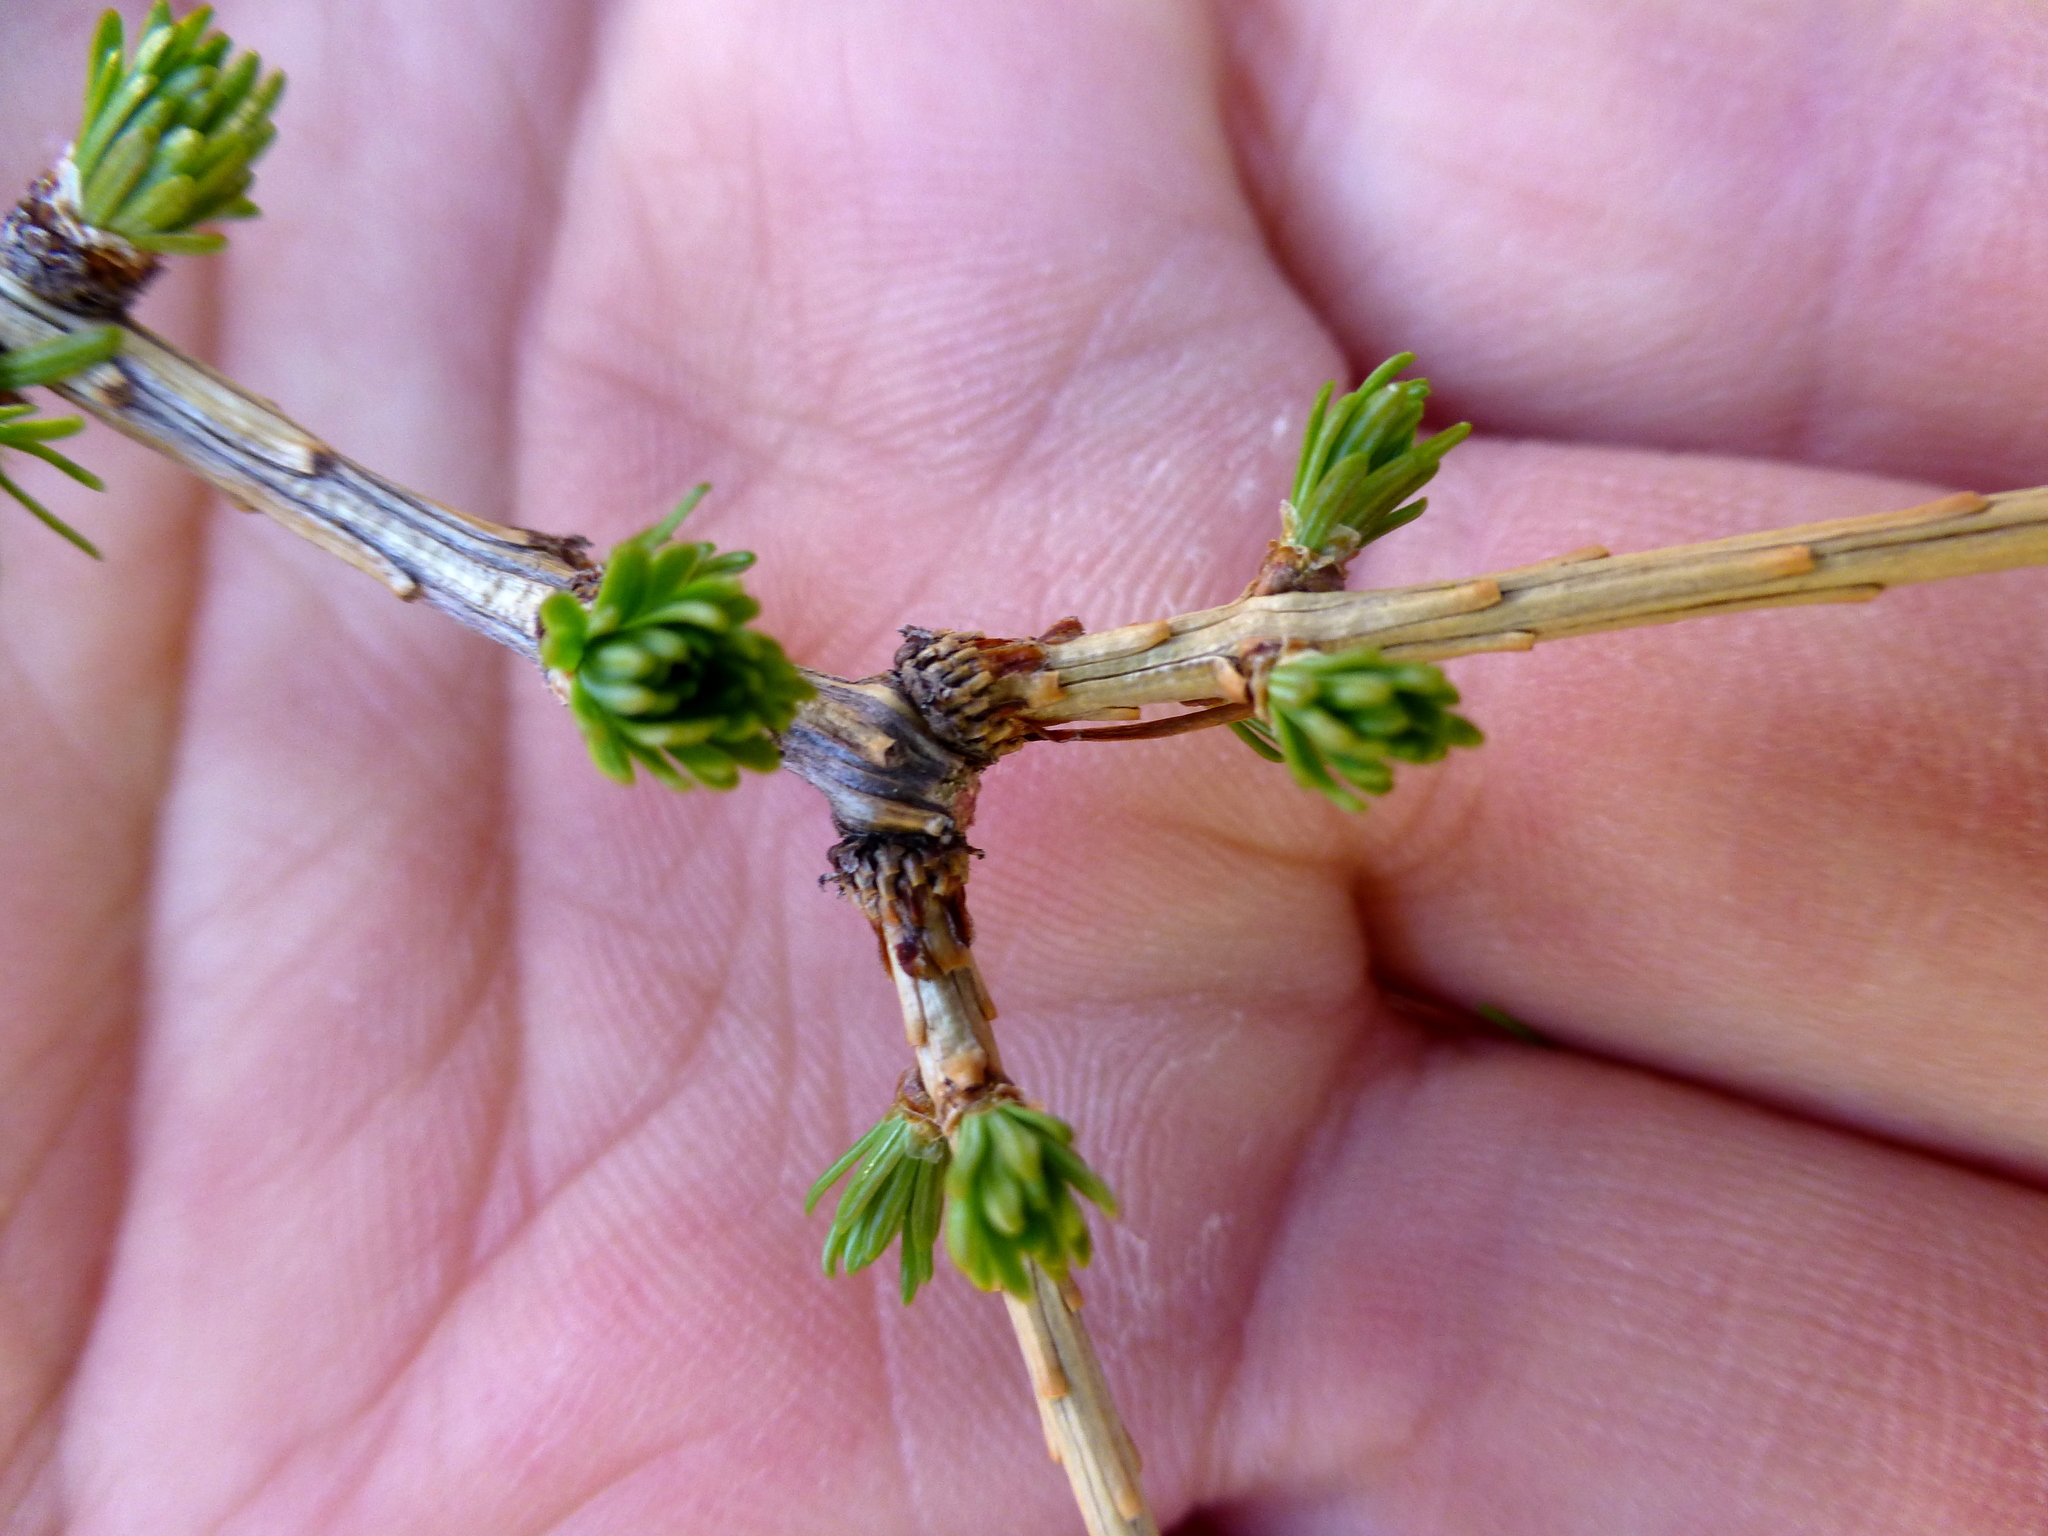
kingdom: Plantae
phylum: Tracheophyta
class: Pinopsida
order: Pinales
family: Pinaceae
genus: Larix
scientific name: Larix decidua
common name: European larch
